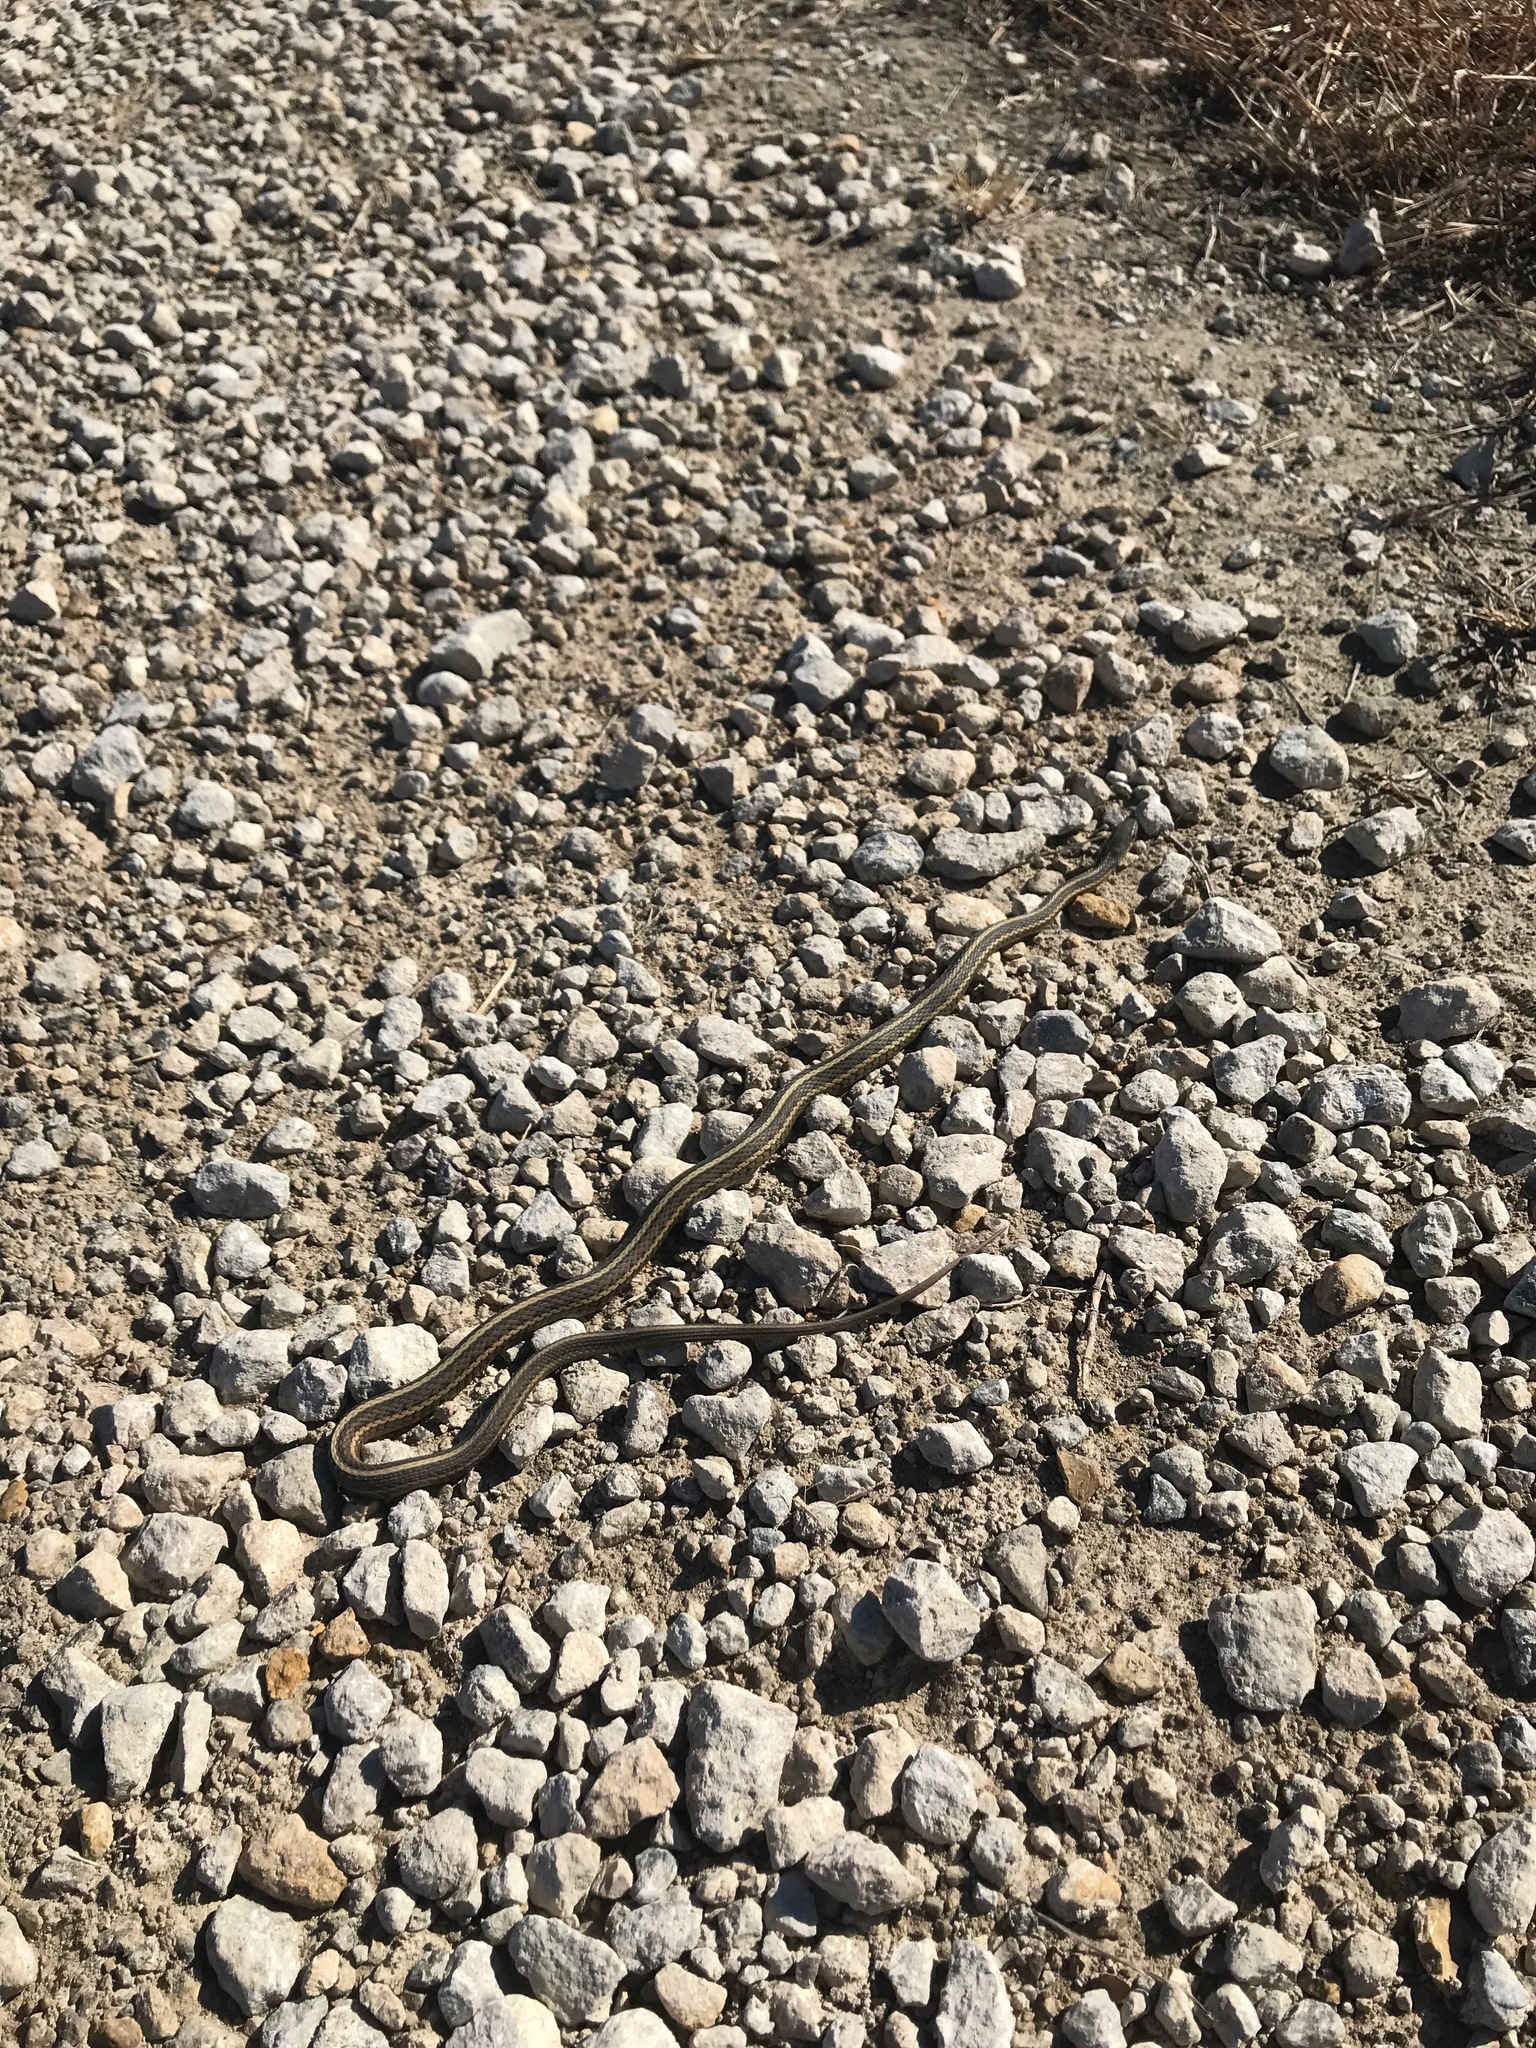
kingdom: Animalia
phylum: Chordata
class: Squamata
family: Colubridae
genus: Thamnophis
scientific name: Thamnophis radix
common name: Plains garter snake
